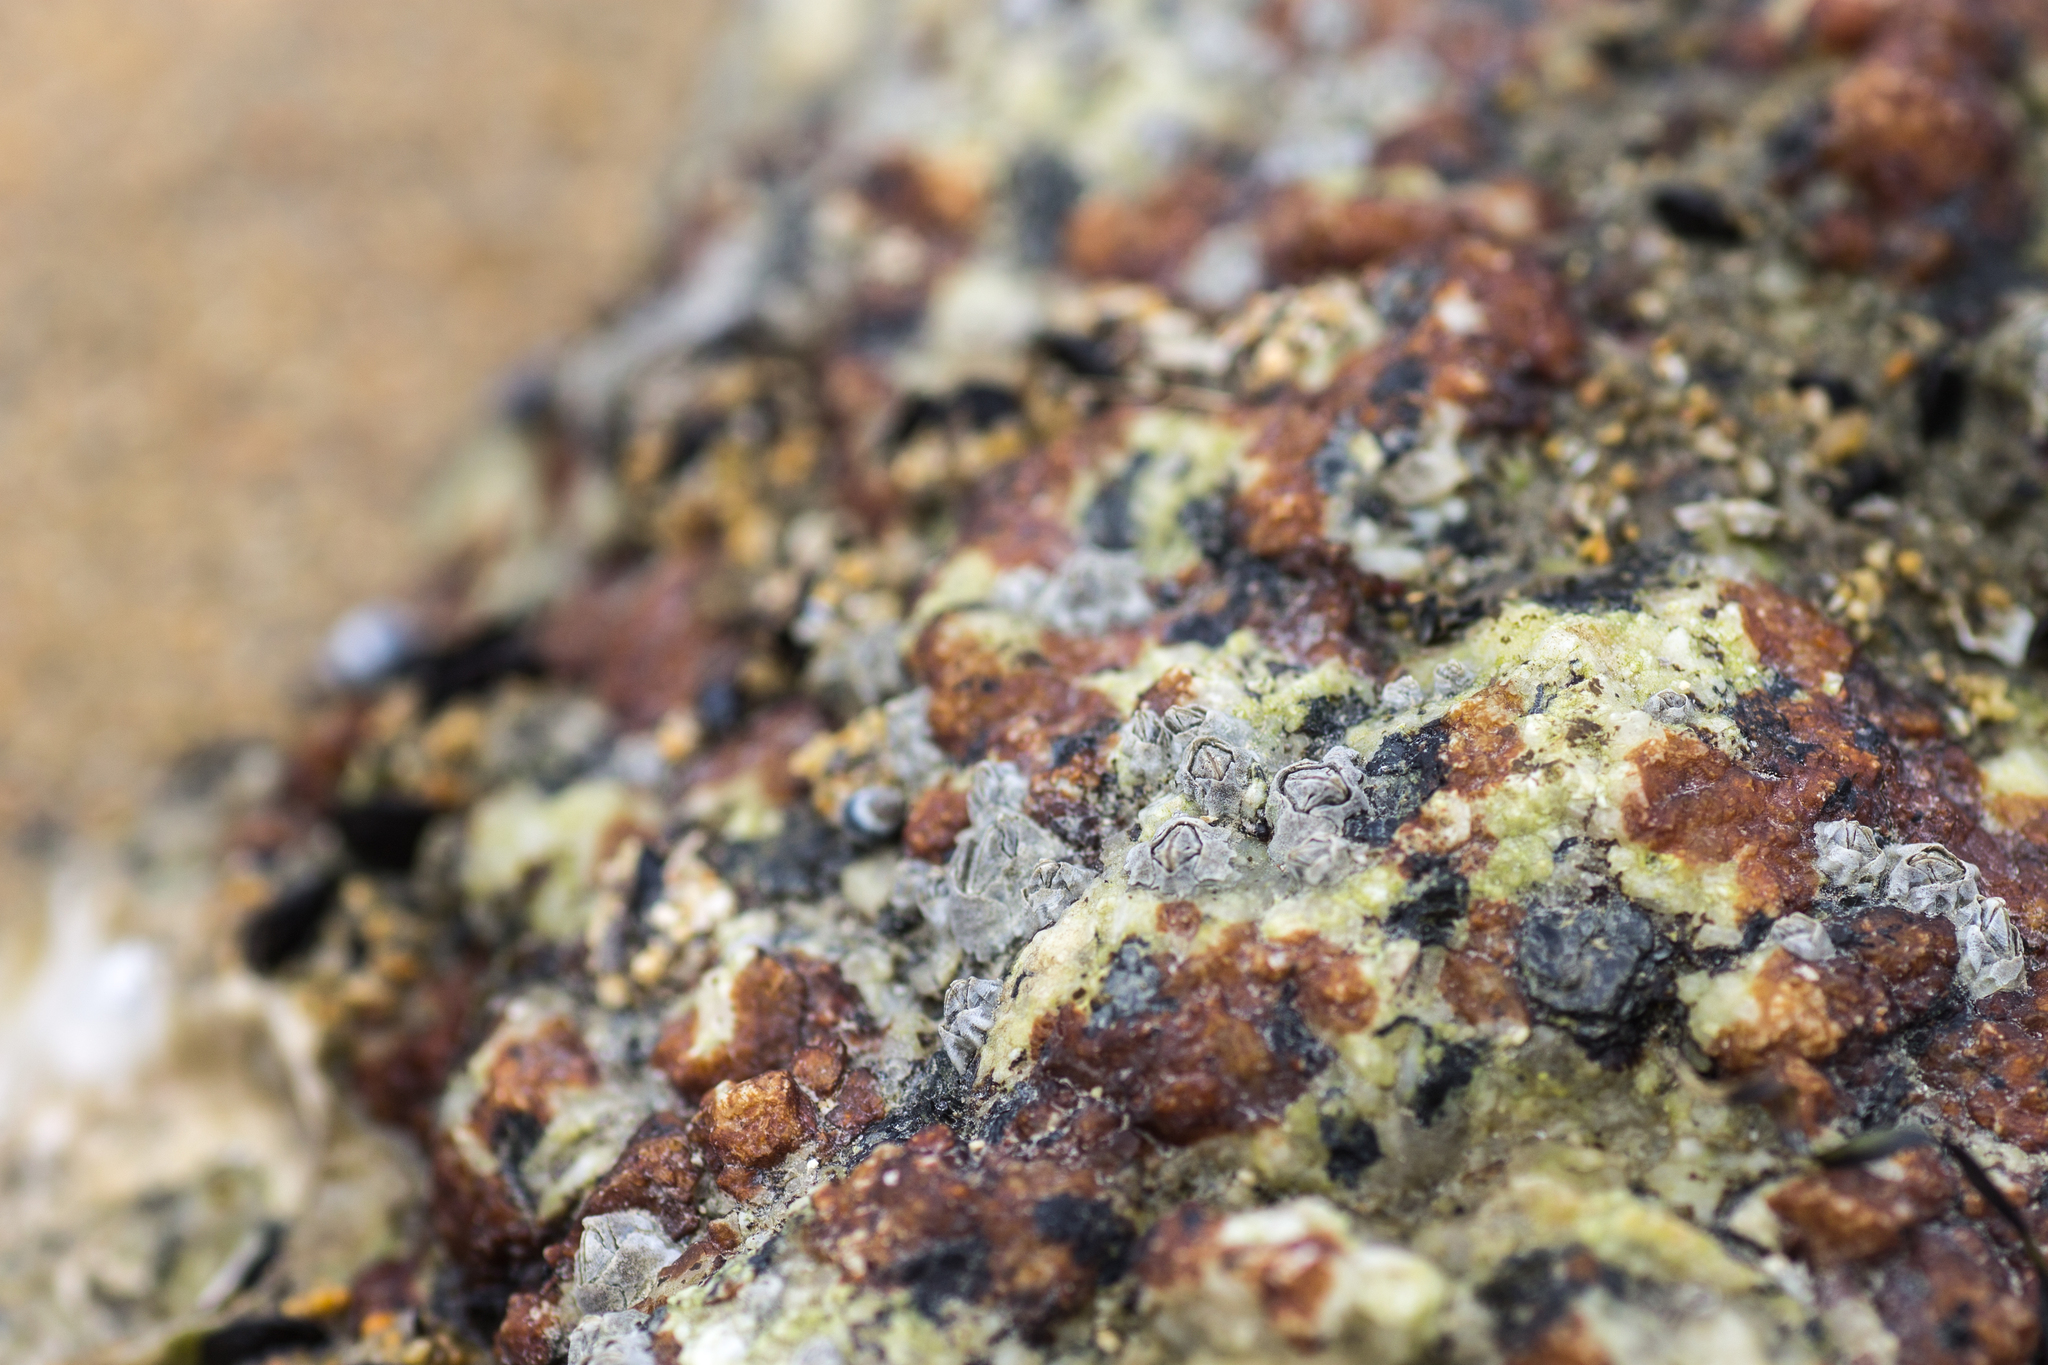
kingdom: Animalia
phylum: Arthropoda
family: Elminiidae
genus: Austrominius
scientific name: Austrominius modestus
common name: Australasian barnacle
